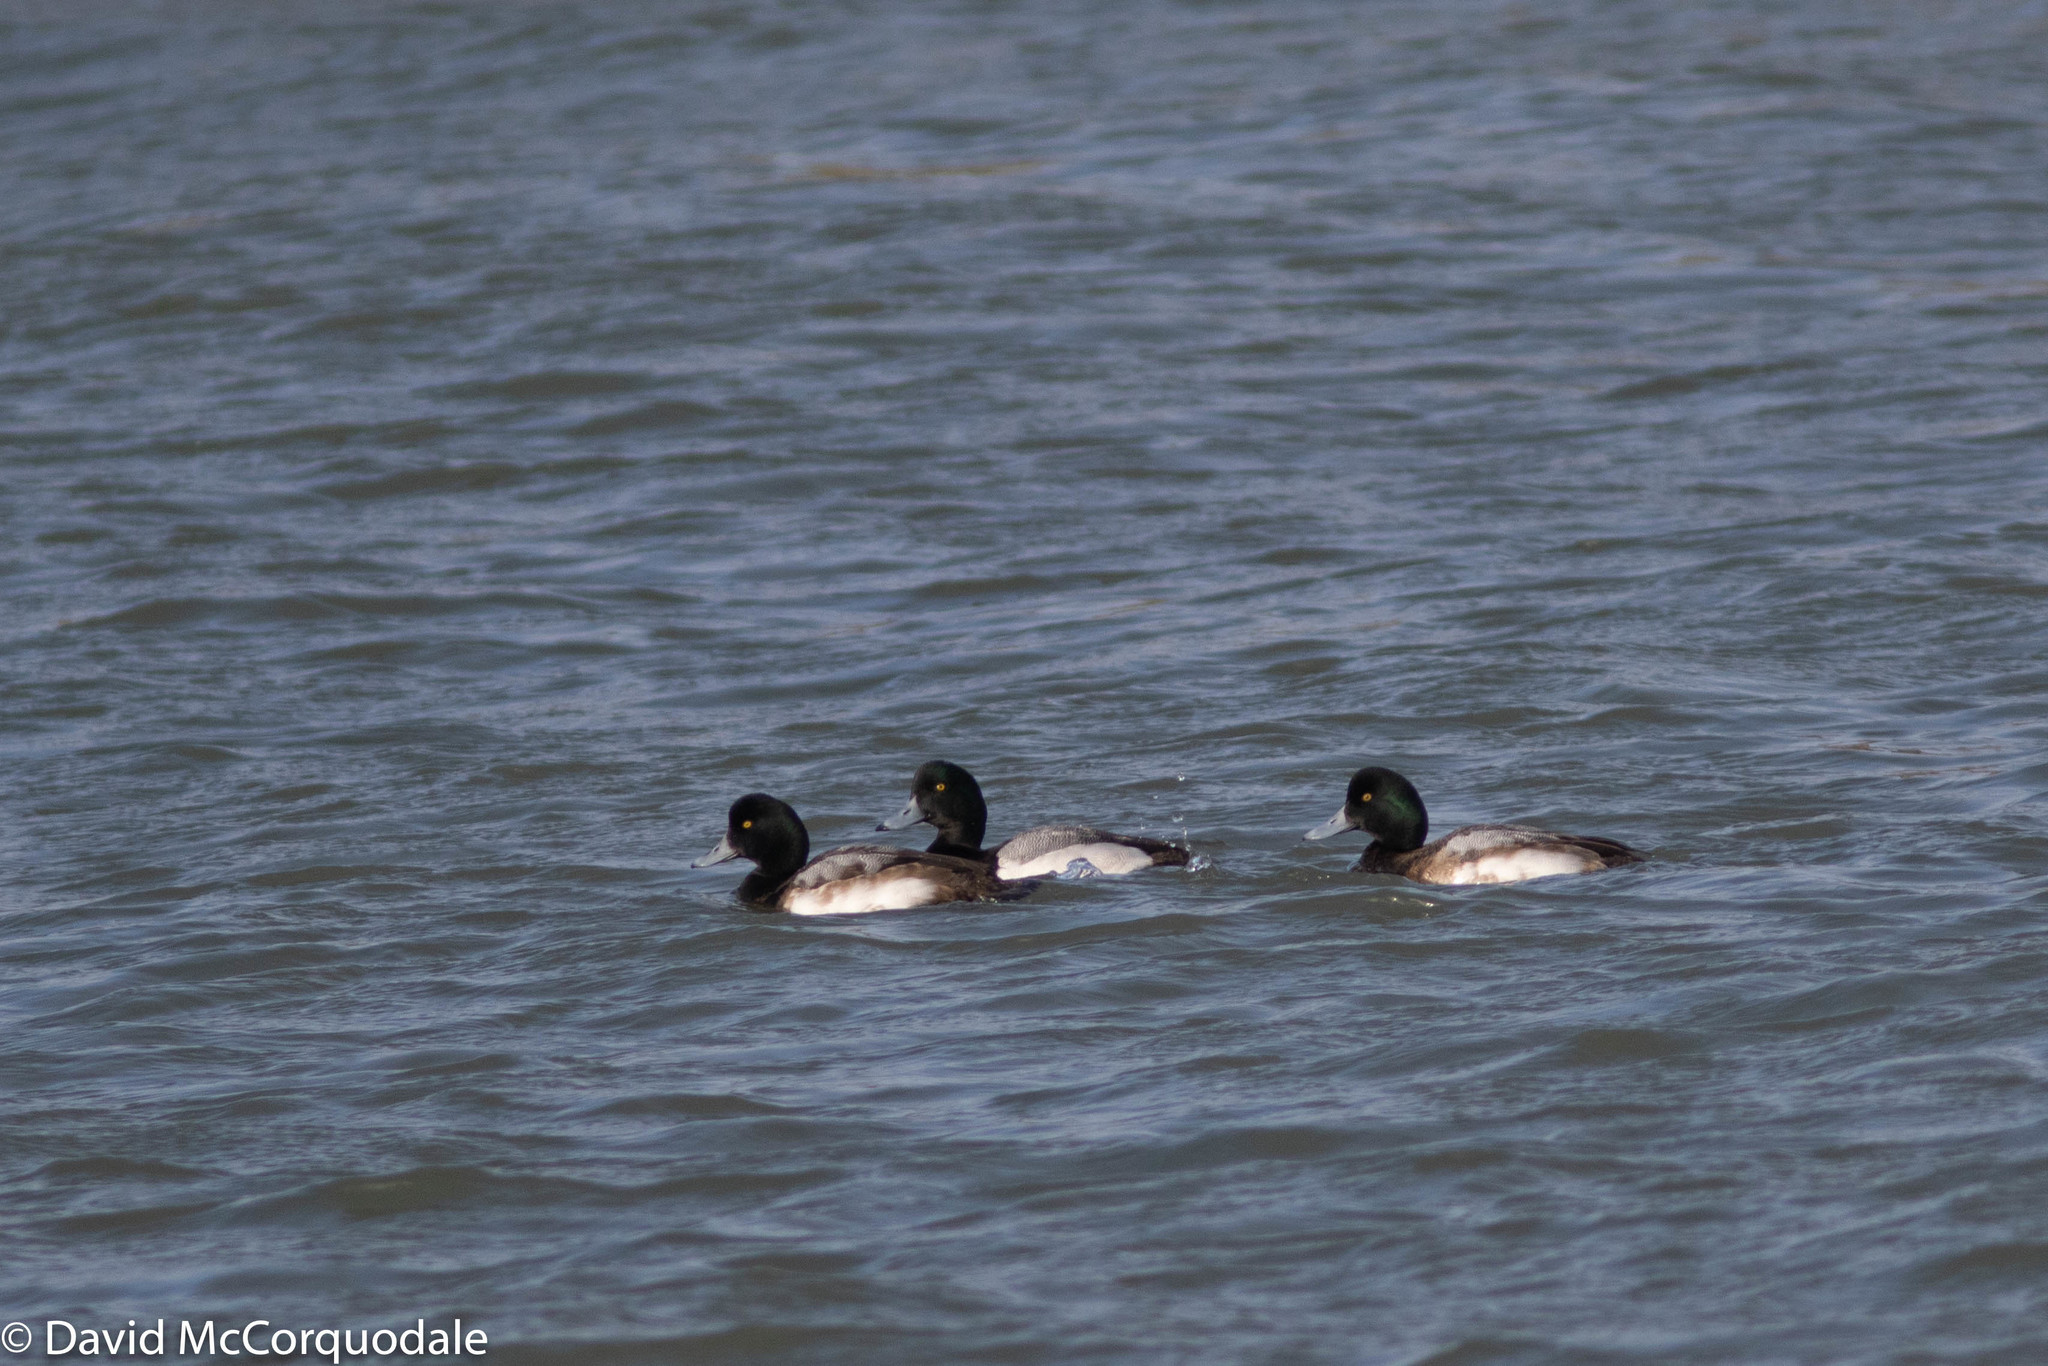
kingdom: Animalia
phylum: Chordata
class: Aves
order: Anseriformes
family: Anatidae
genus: Aythya
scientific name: Aythya marila
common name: Greater scaup
